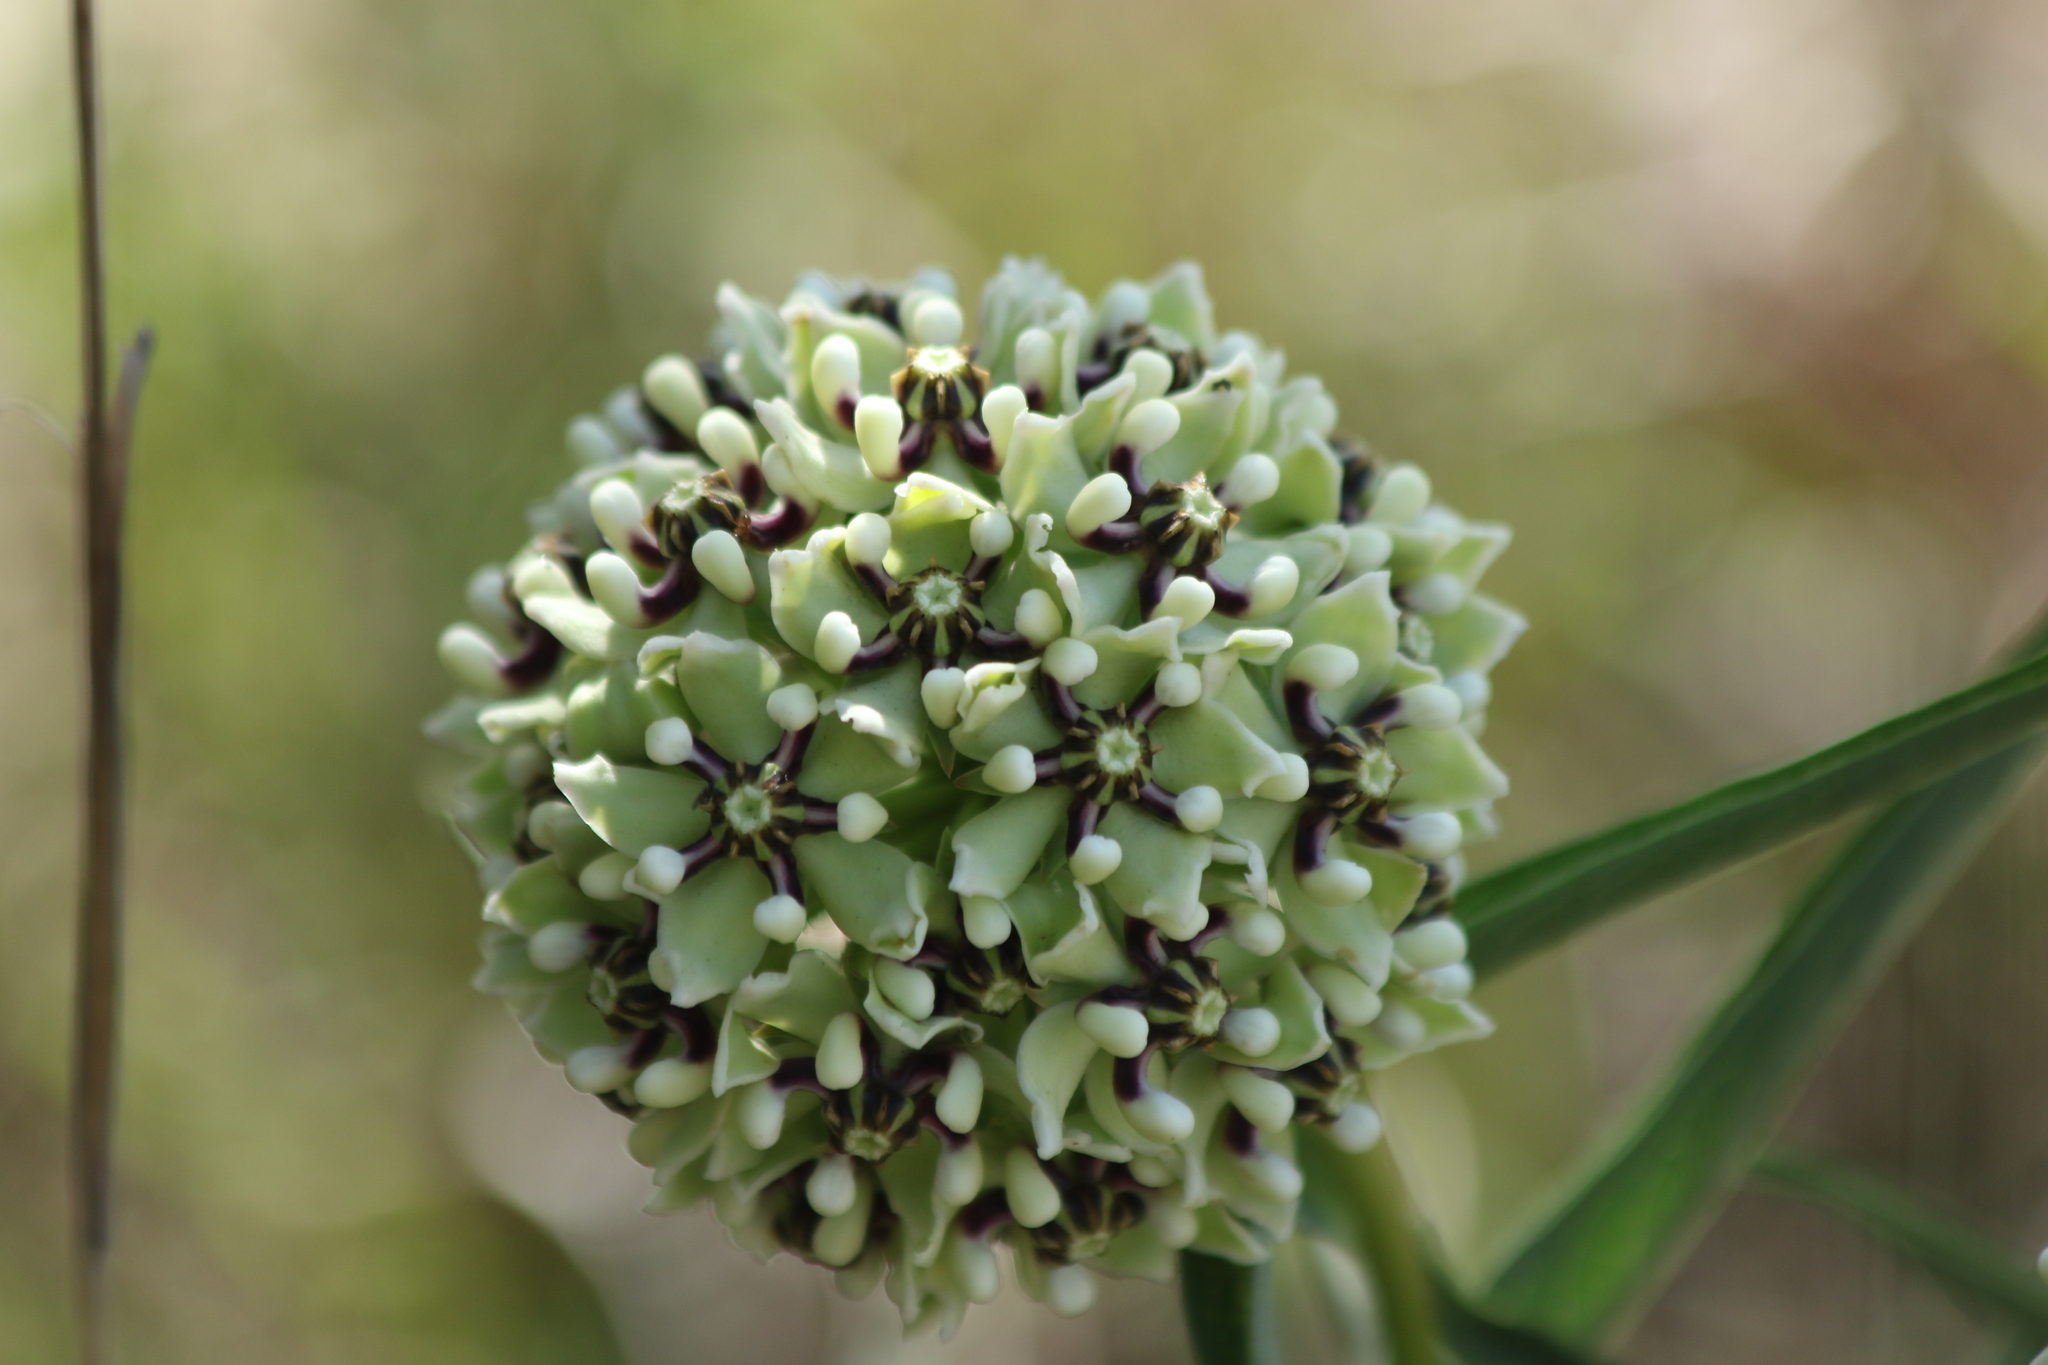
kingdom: Plantae
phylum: Tracheophyta
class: Magnoliopsida
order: Gentianales
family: Apocynaceae
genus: Asclepias
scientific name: Asclepias asperula
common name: Antelope horns
